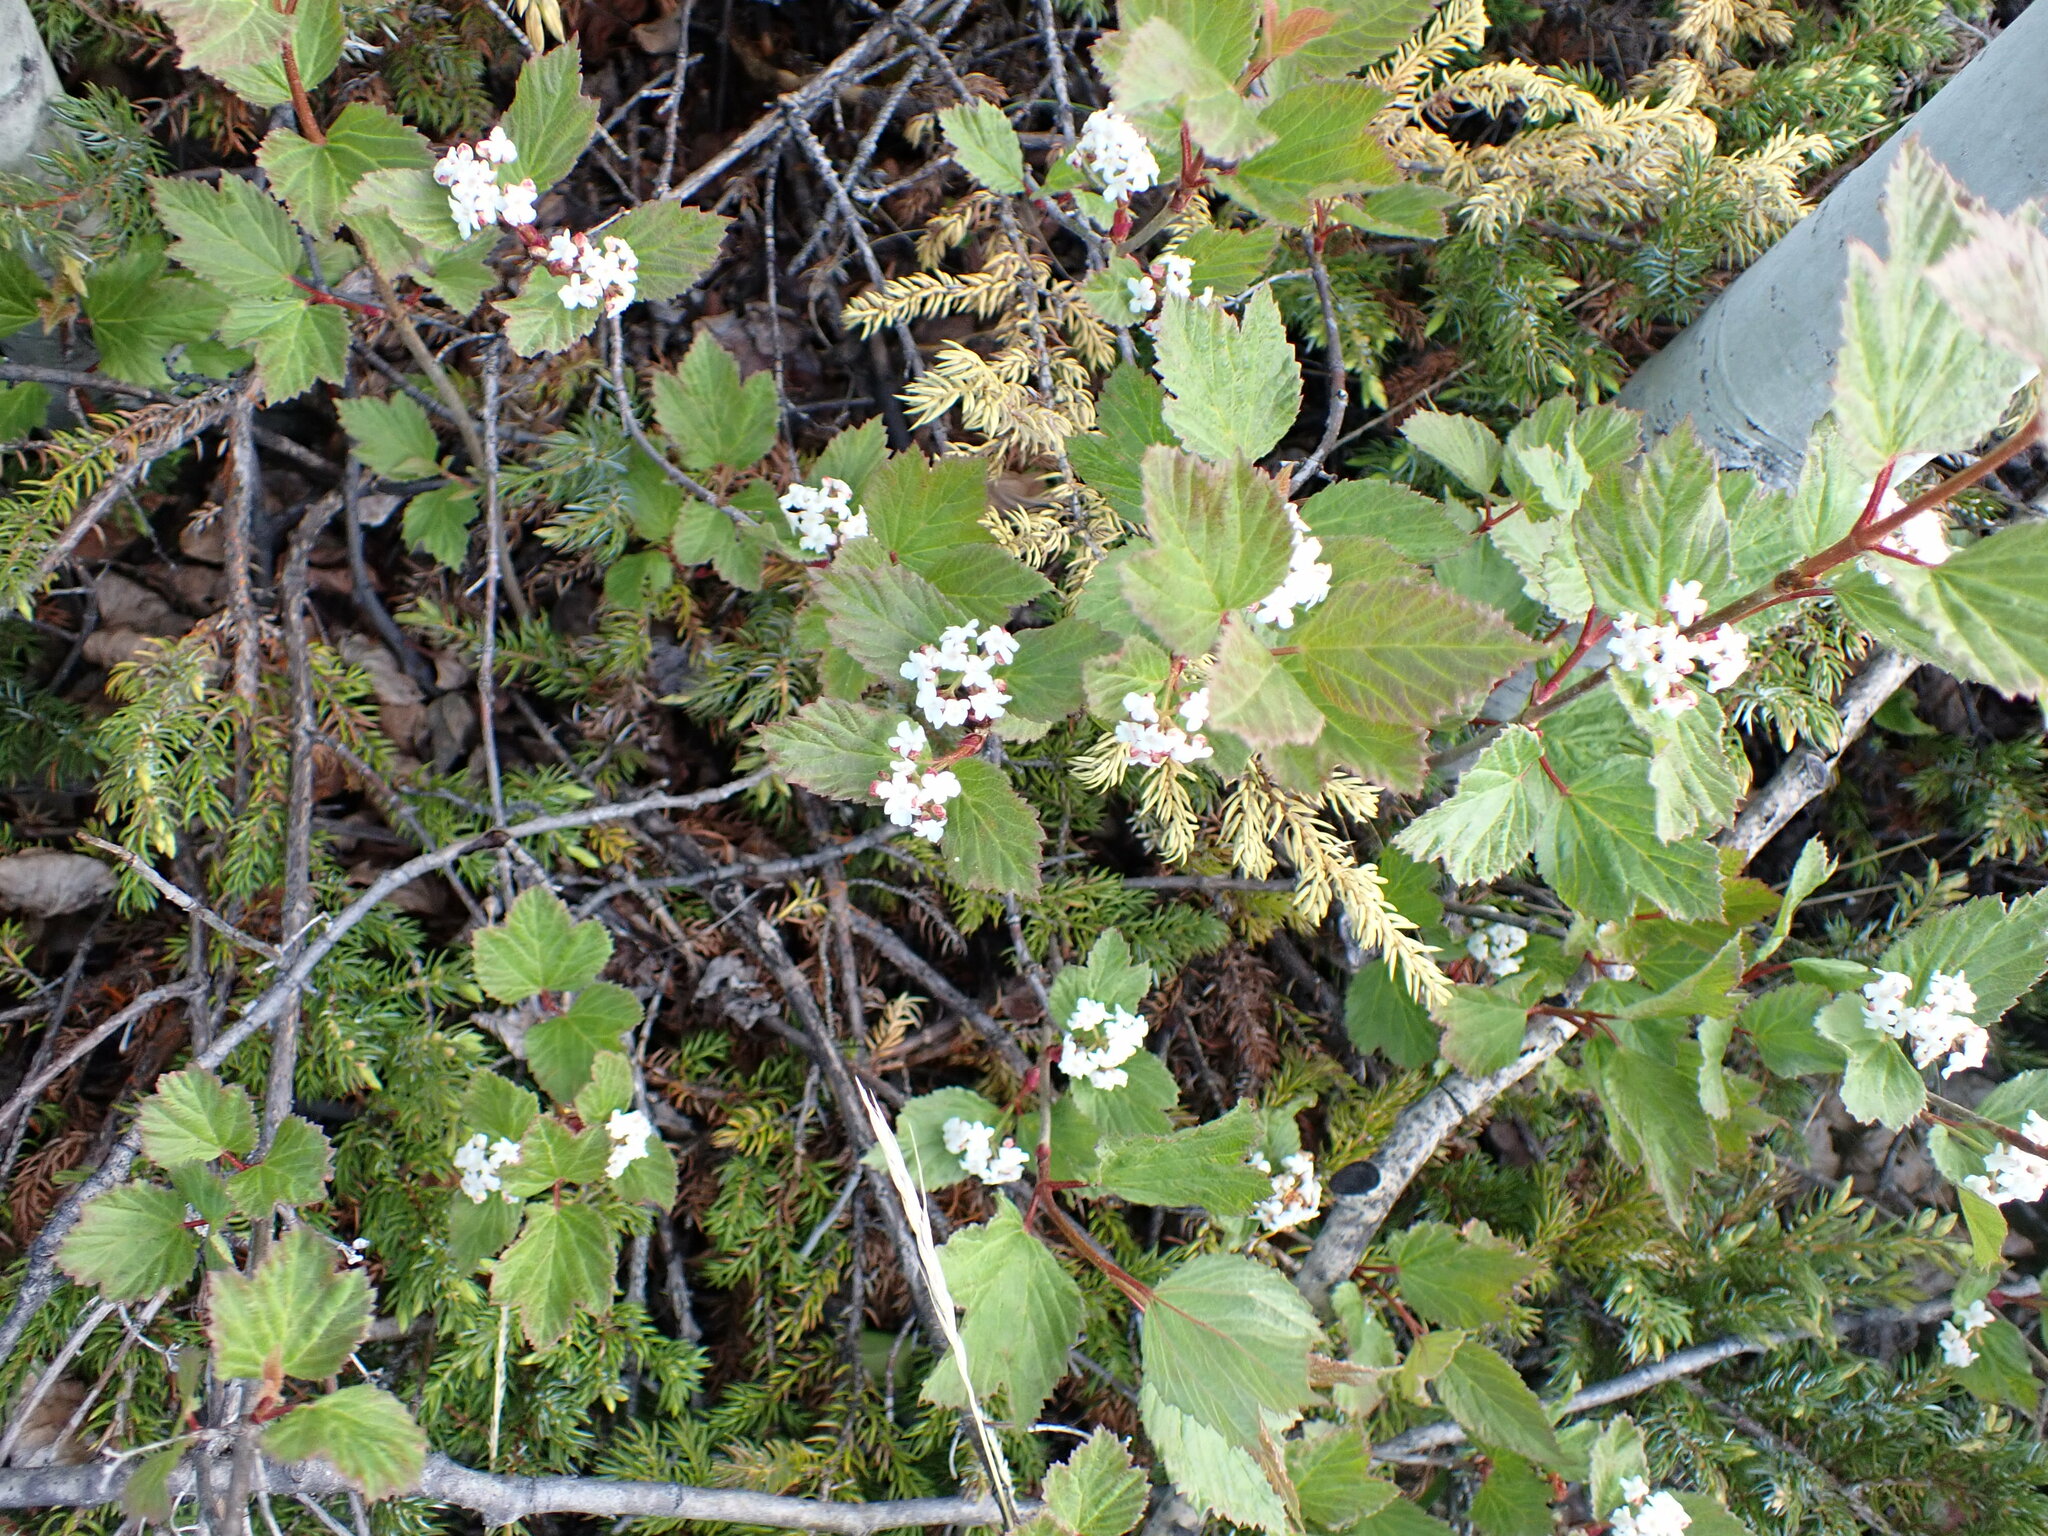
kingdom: Plantae
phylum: Tracheophyta
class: Magnoliopsida
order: Dipsacales
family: Viburnaceae
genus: Viburnum
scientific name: Viburnum edule
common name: Mooseberry
